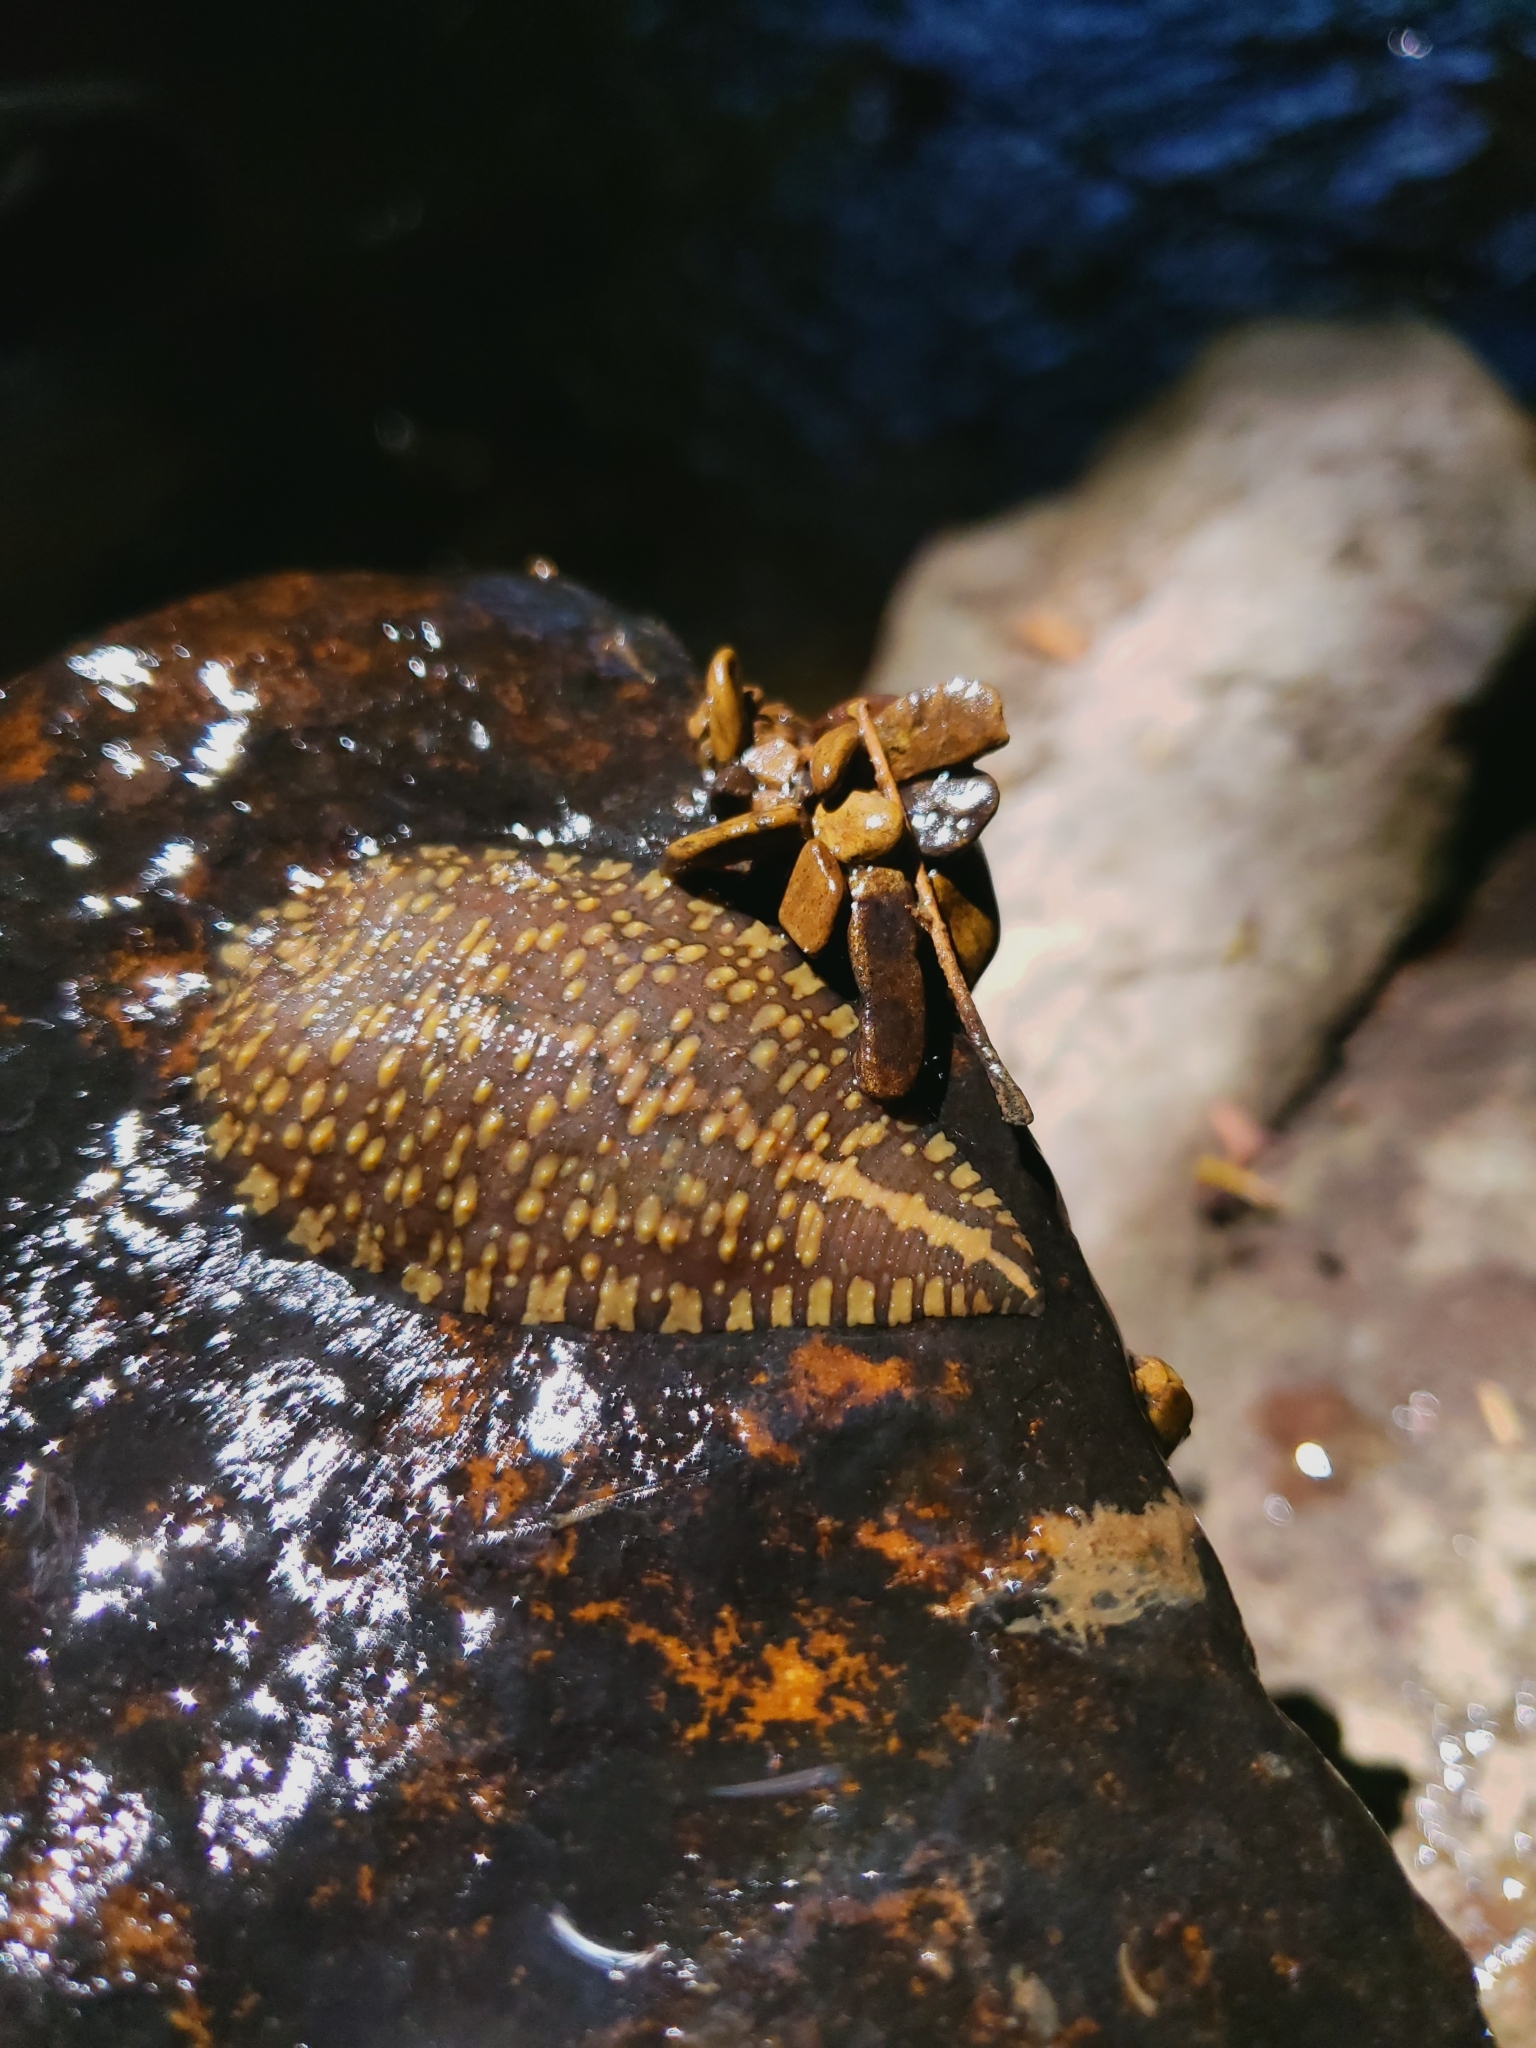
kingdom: Animalia
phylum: Annelida
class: Clitellata
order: Rhynchobdellida
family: Glossiphoniidae
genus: Placobdella
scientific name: Placobdella parasitica
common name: Smooth turtle leech
